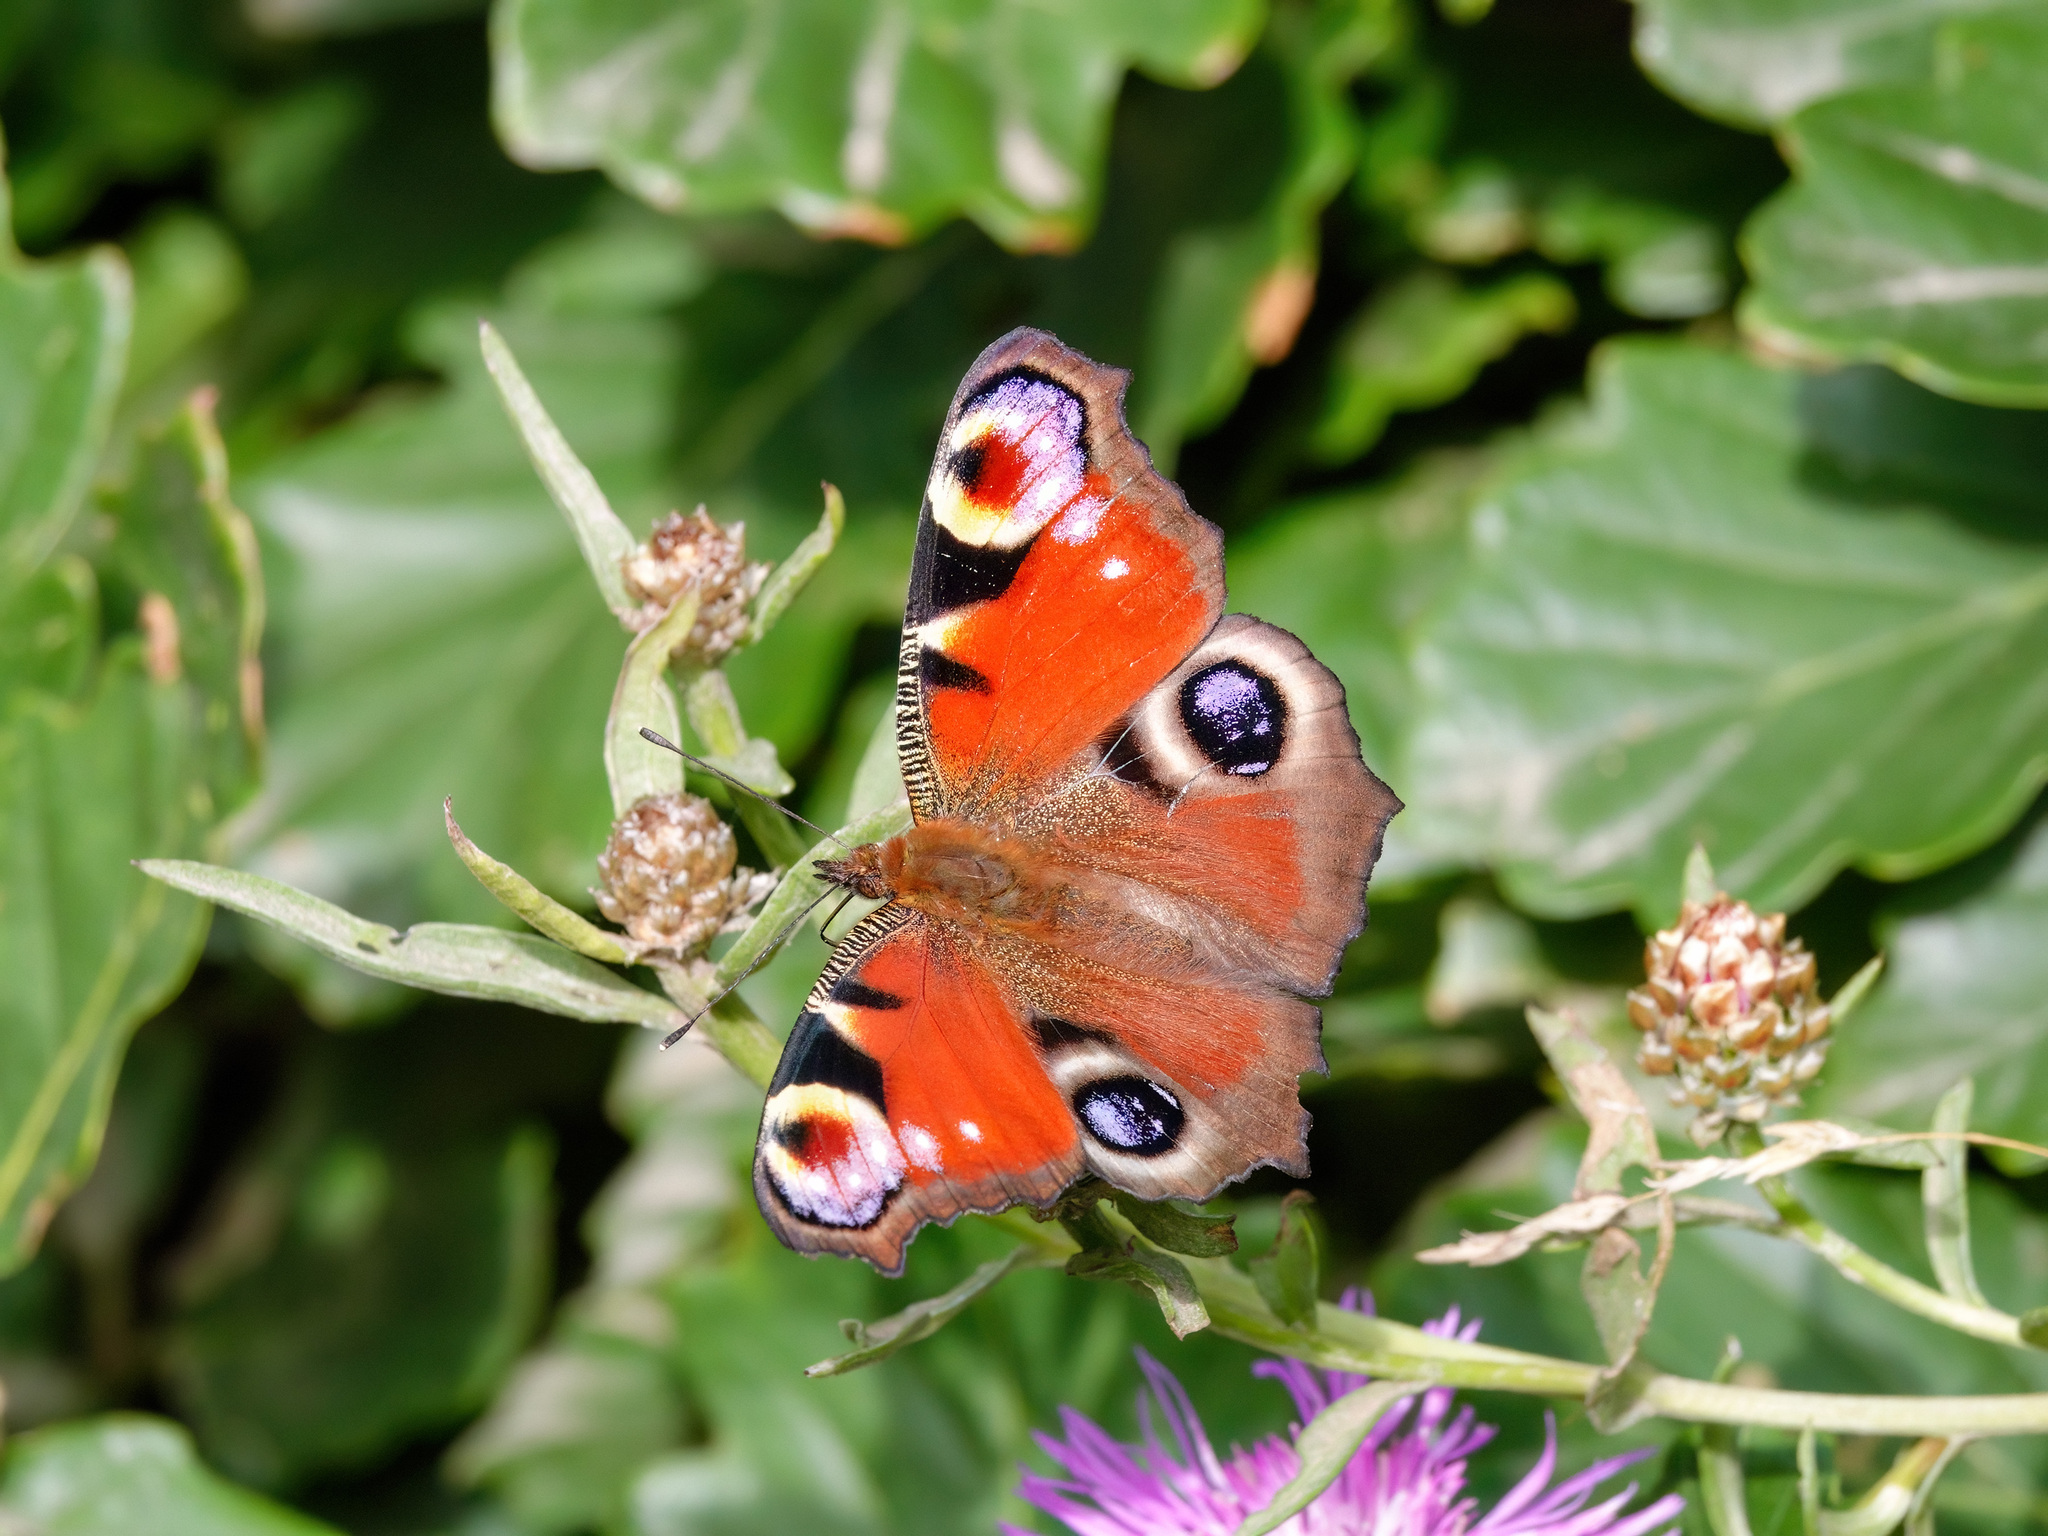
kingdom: Animalia
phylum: Arthropoda
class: Insecta
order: Lepidoptera
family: Nymphalidae
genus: Aglais
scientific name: Aglais io
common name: Peacock
